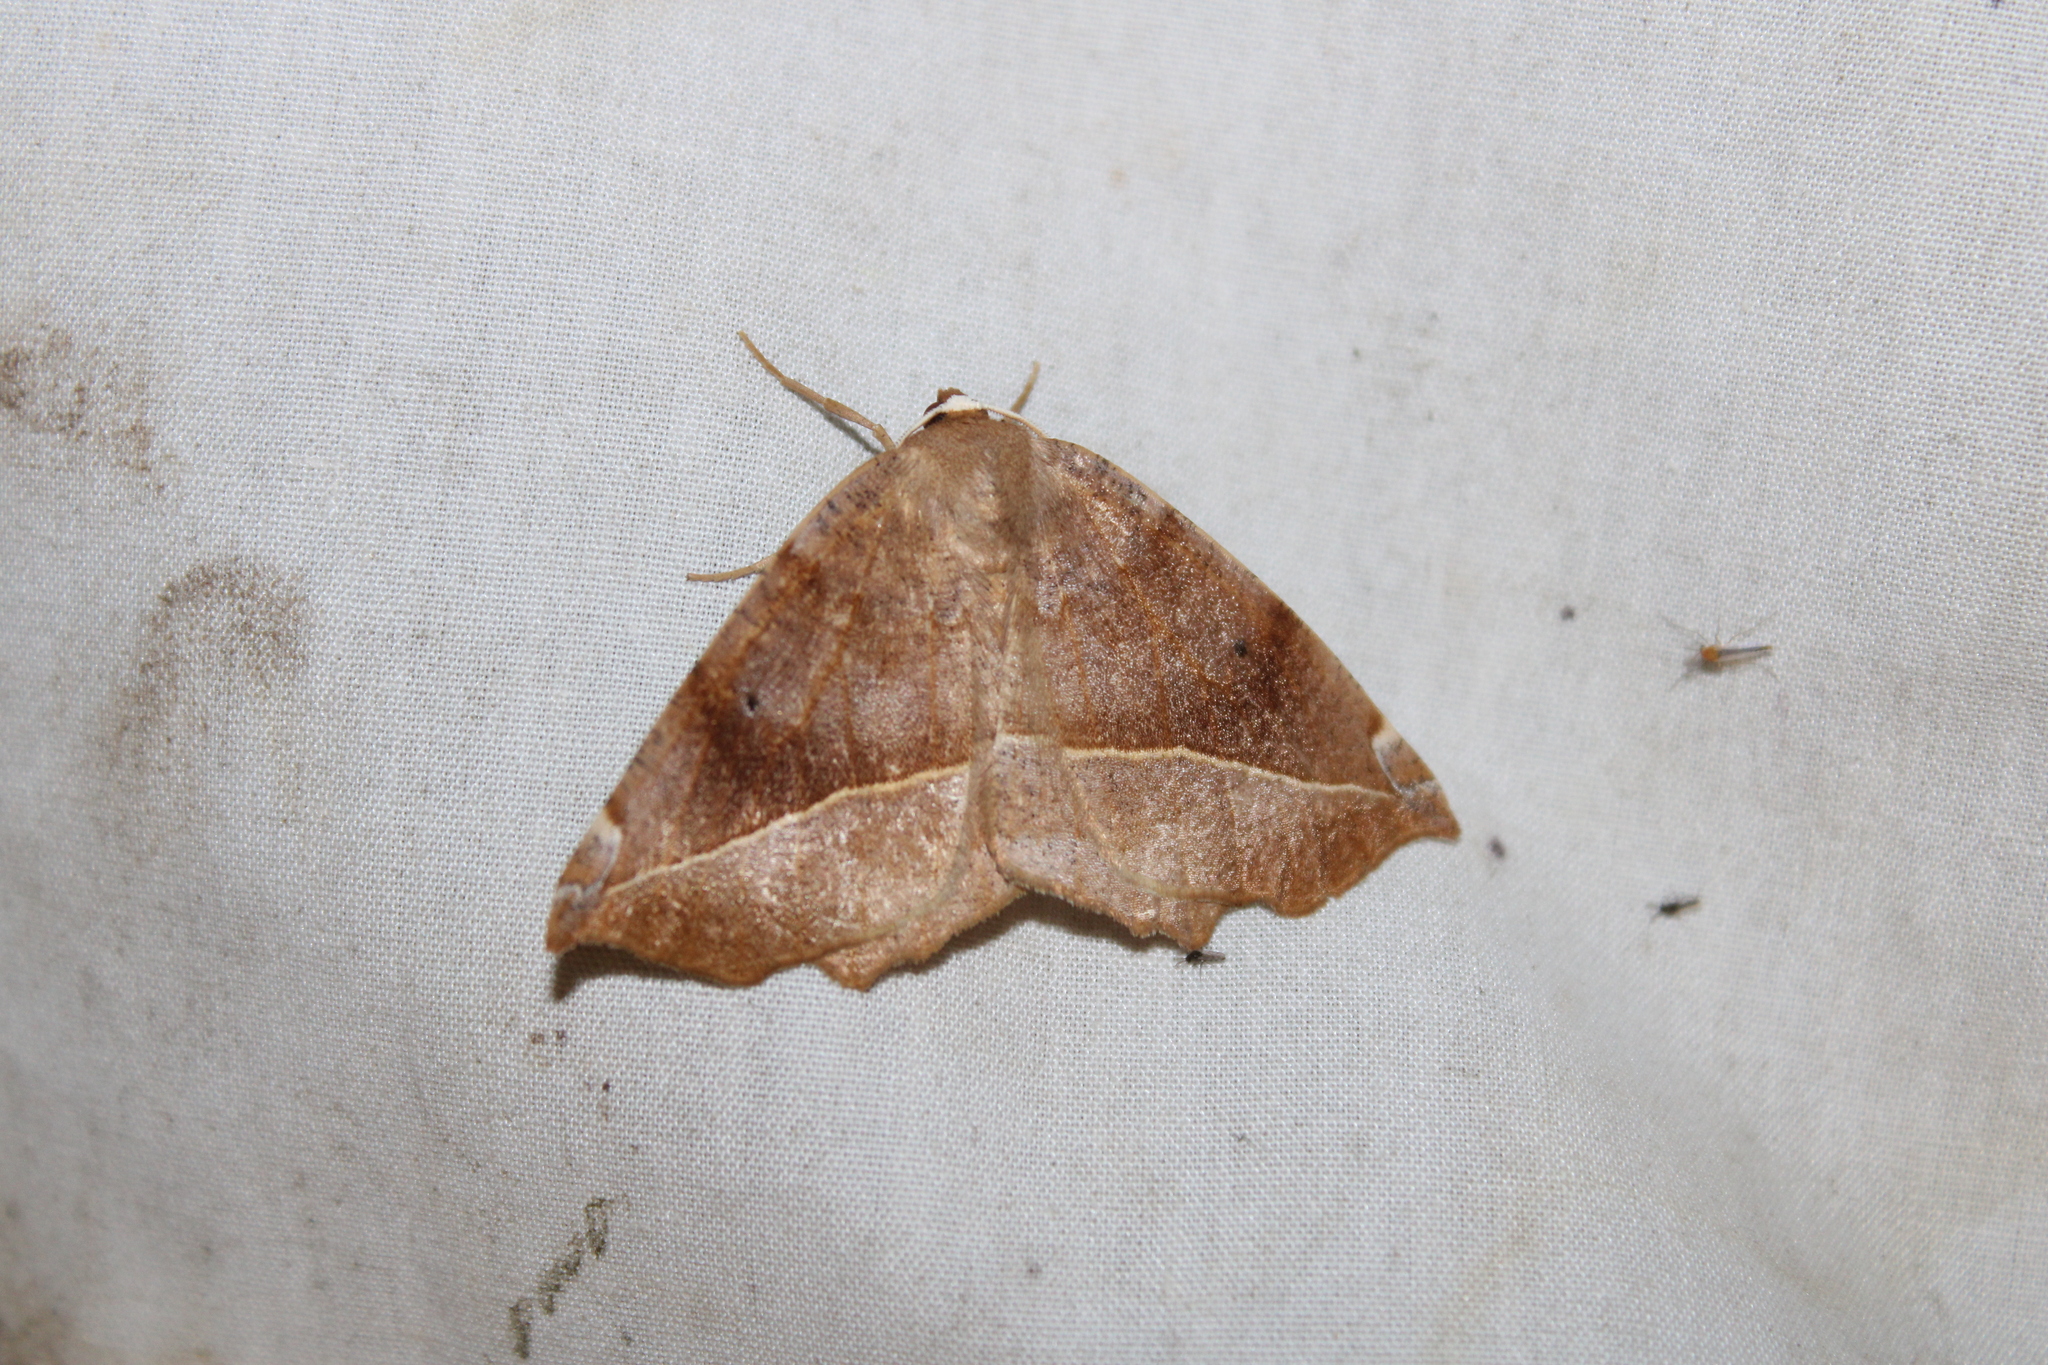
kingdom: Animalia
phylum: Arthropoda
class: Insecta
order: Lepidoptera
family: Geometridae
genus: Eutrapela
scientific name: Eutrapela clemataria
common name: Curved-toothed geometer
